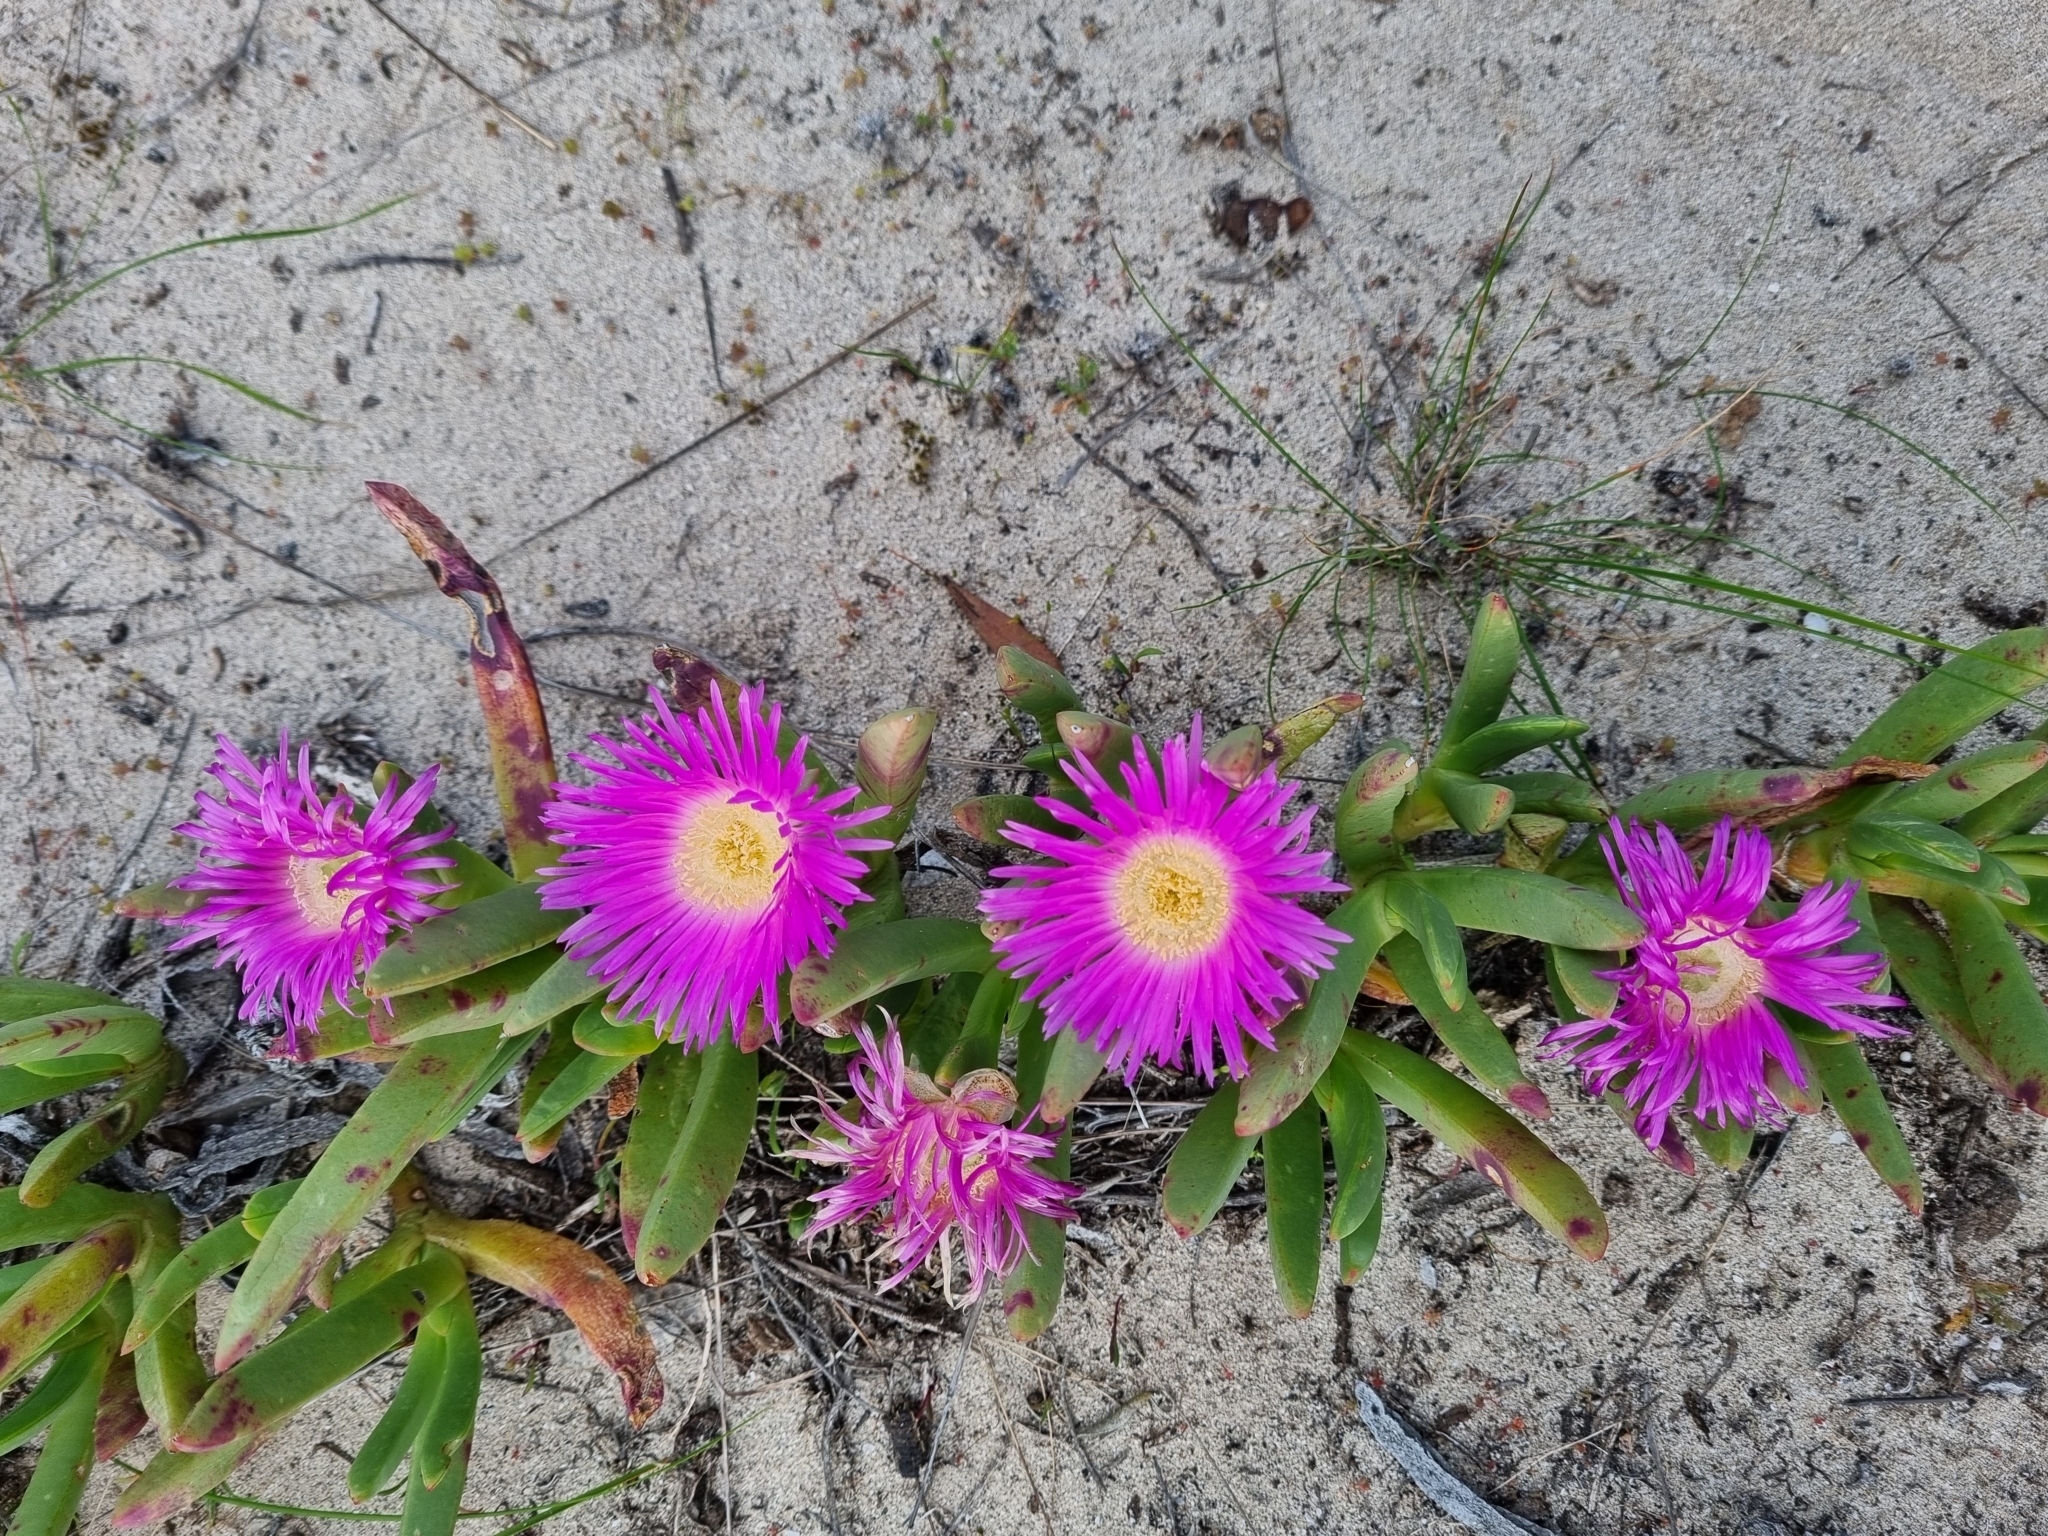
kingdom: Plantae
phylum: Tracheophyta
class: Magnoliopsida
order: Caryophyllales
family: Aizoaceae
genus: Carpobrotus
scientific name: Carpobrotus rossii
